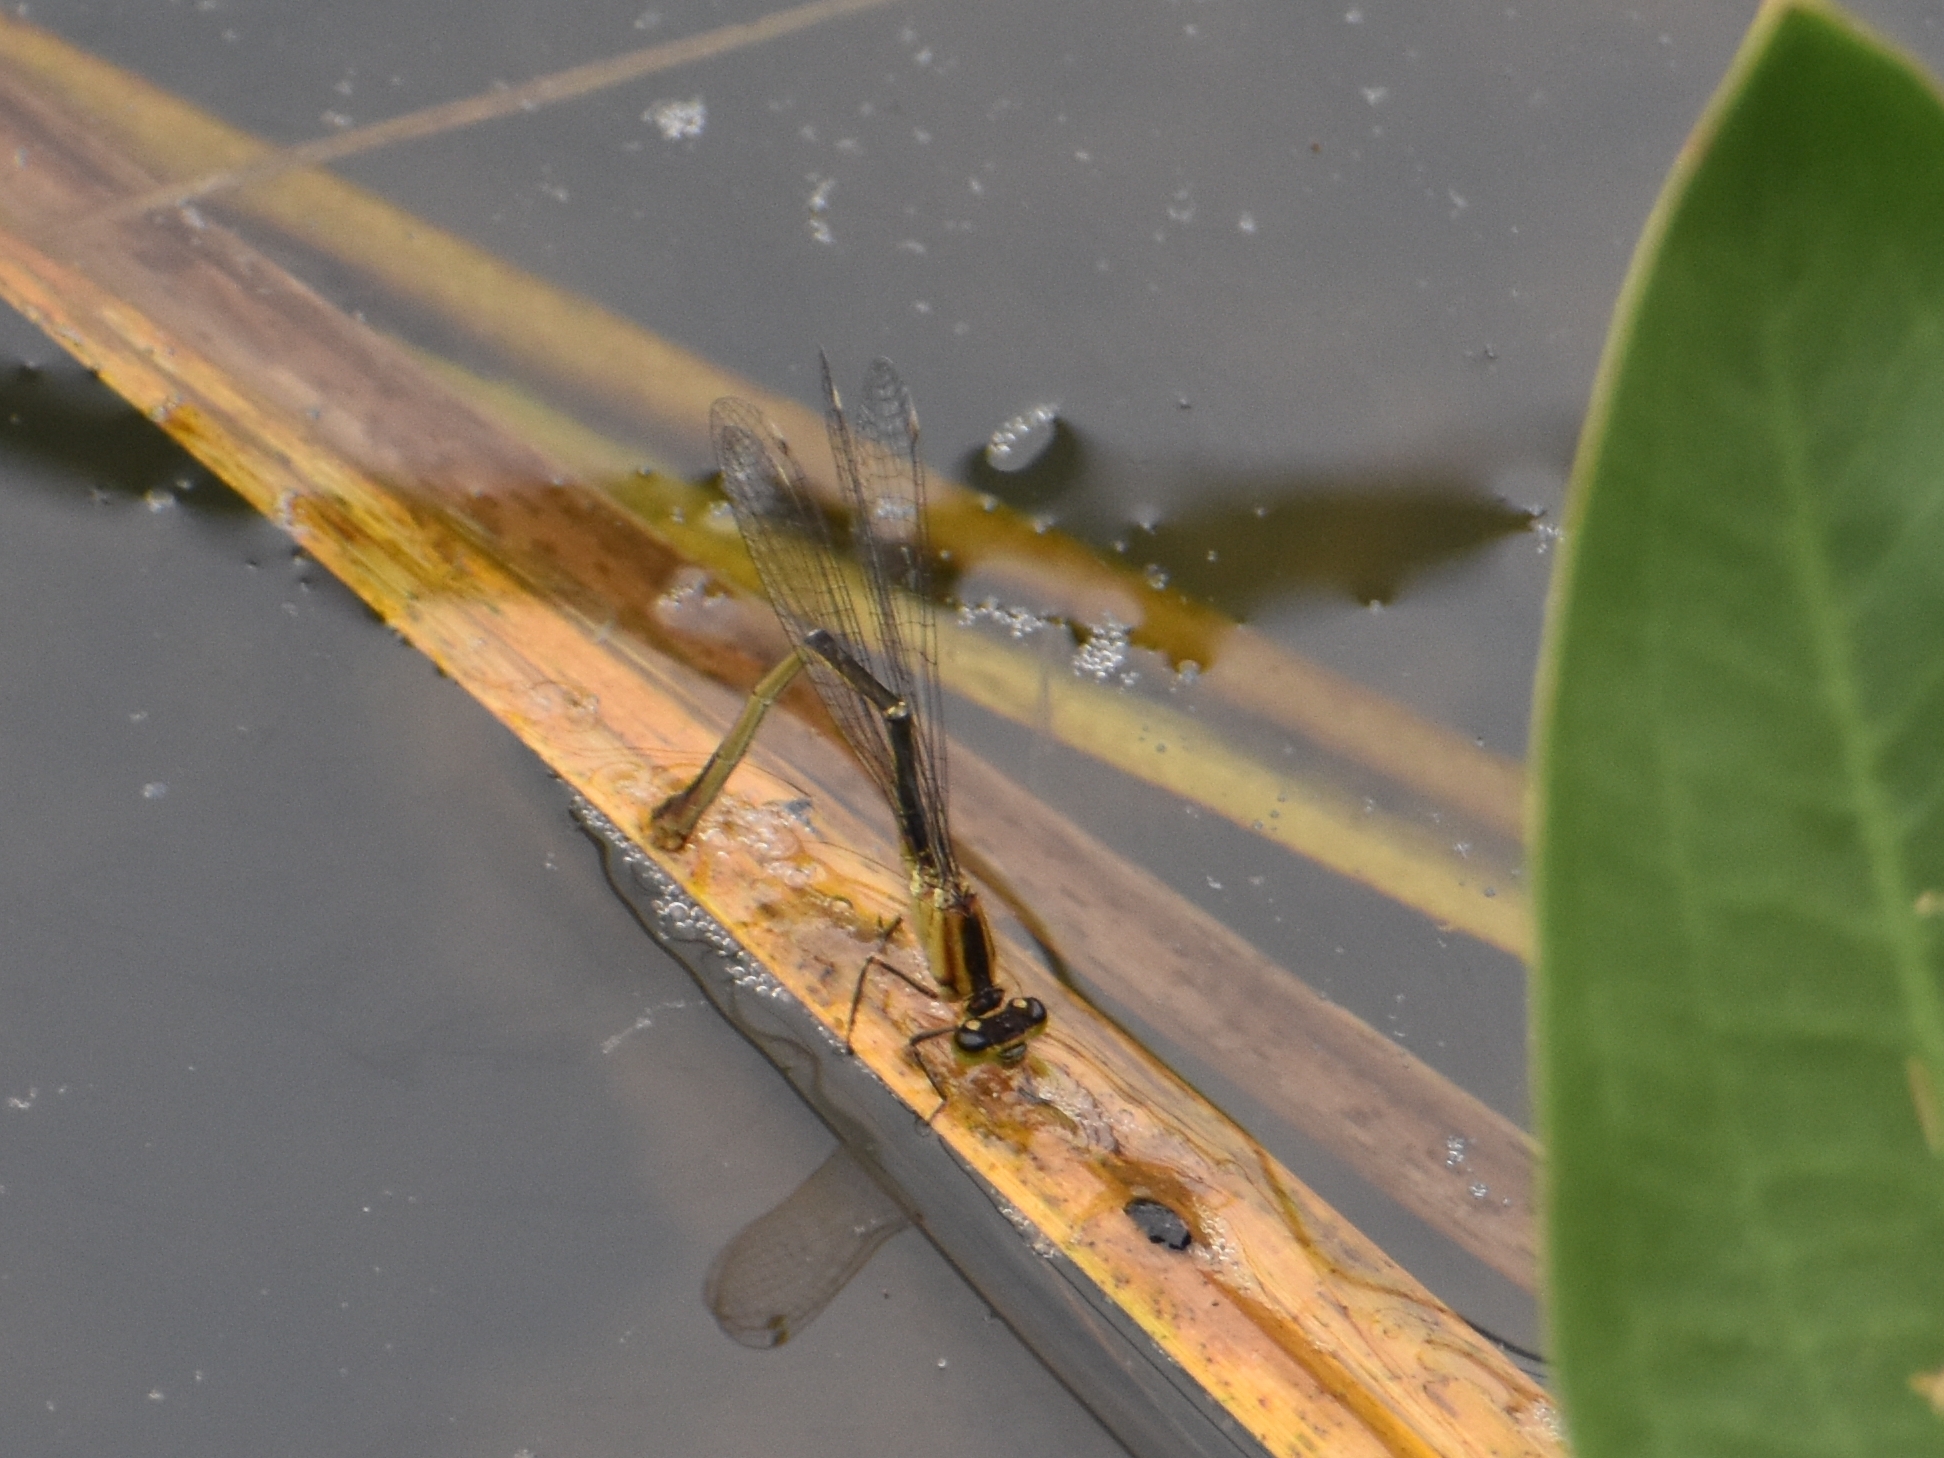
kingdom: Animalia
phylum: Arthropoda
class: Insecta
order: Odonata
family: Coenagrionidae
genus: Ischnura
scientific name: Ischnura elegans
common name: Blue-tailed damselfly
